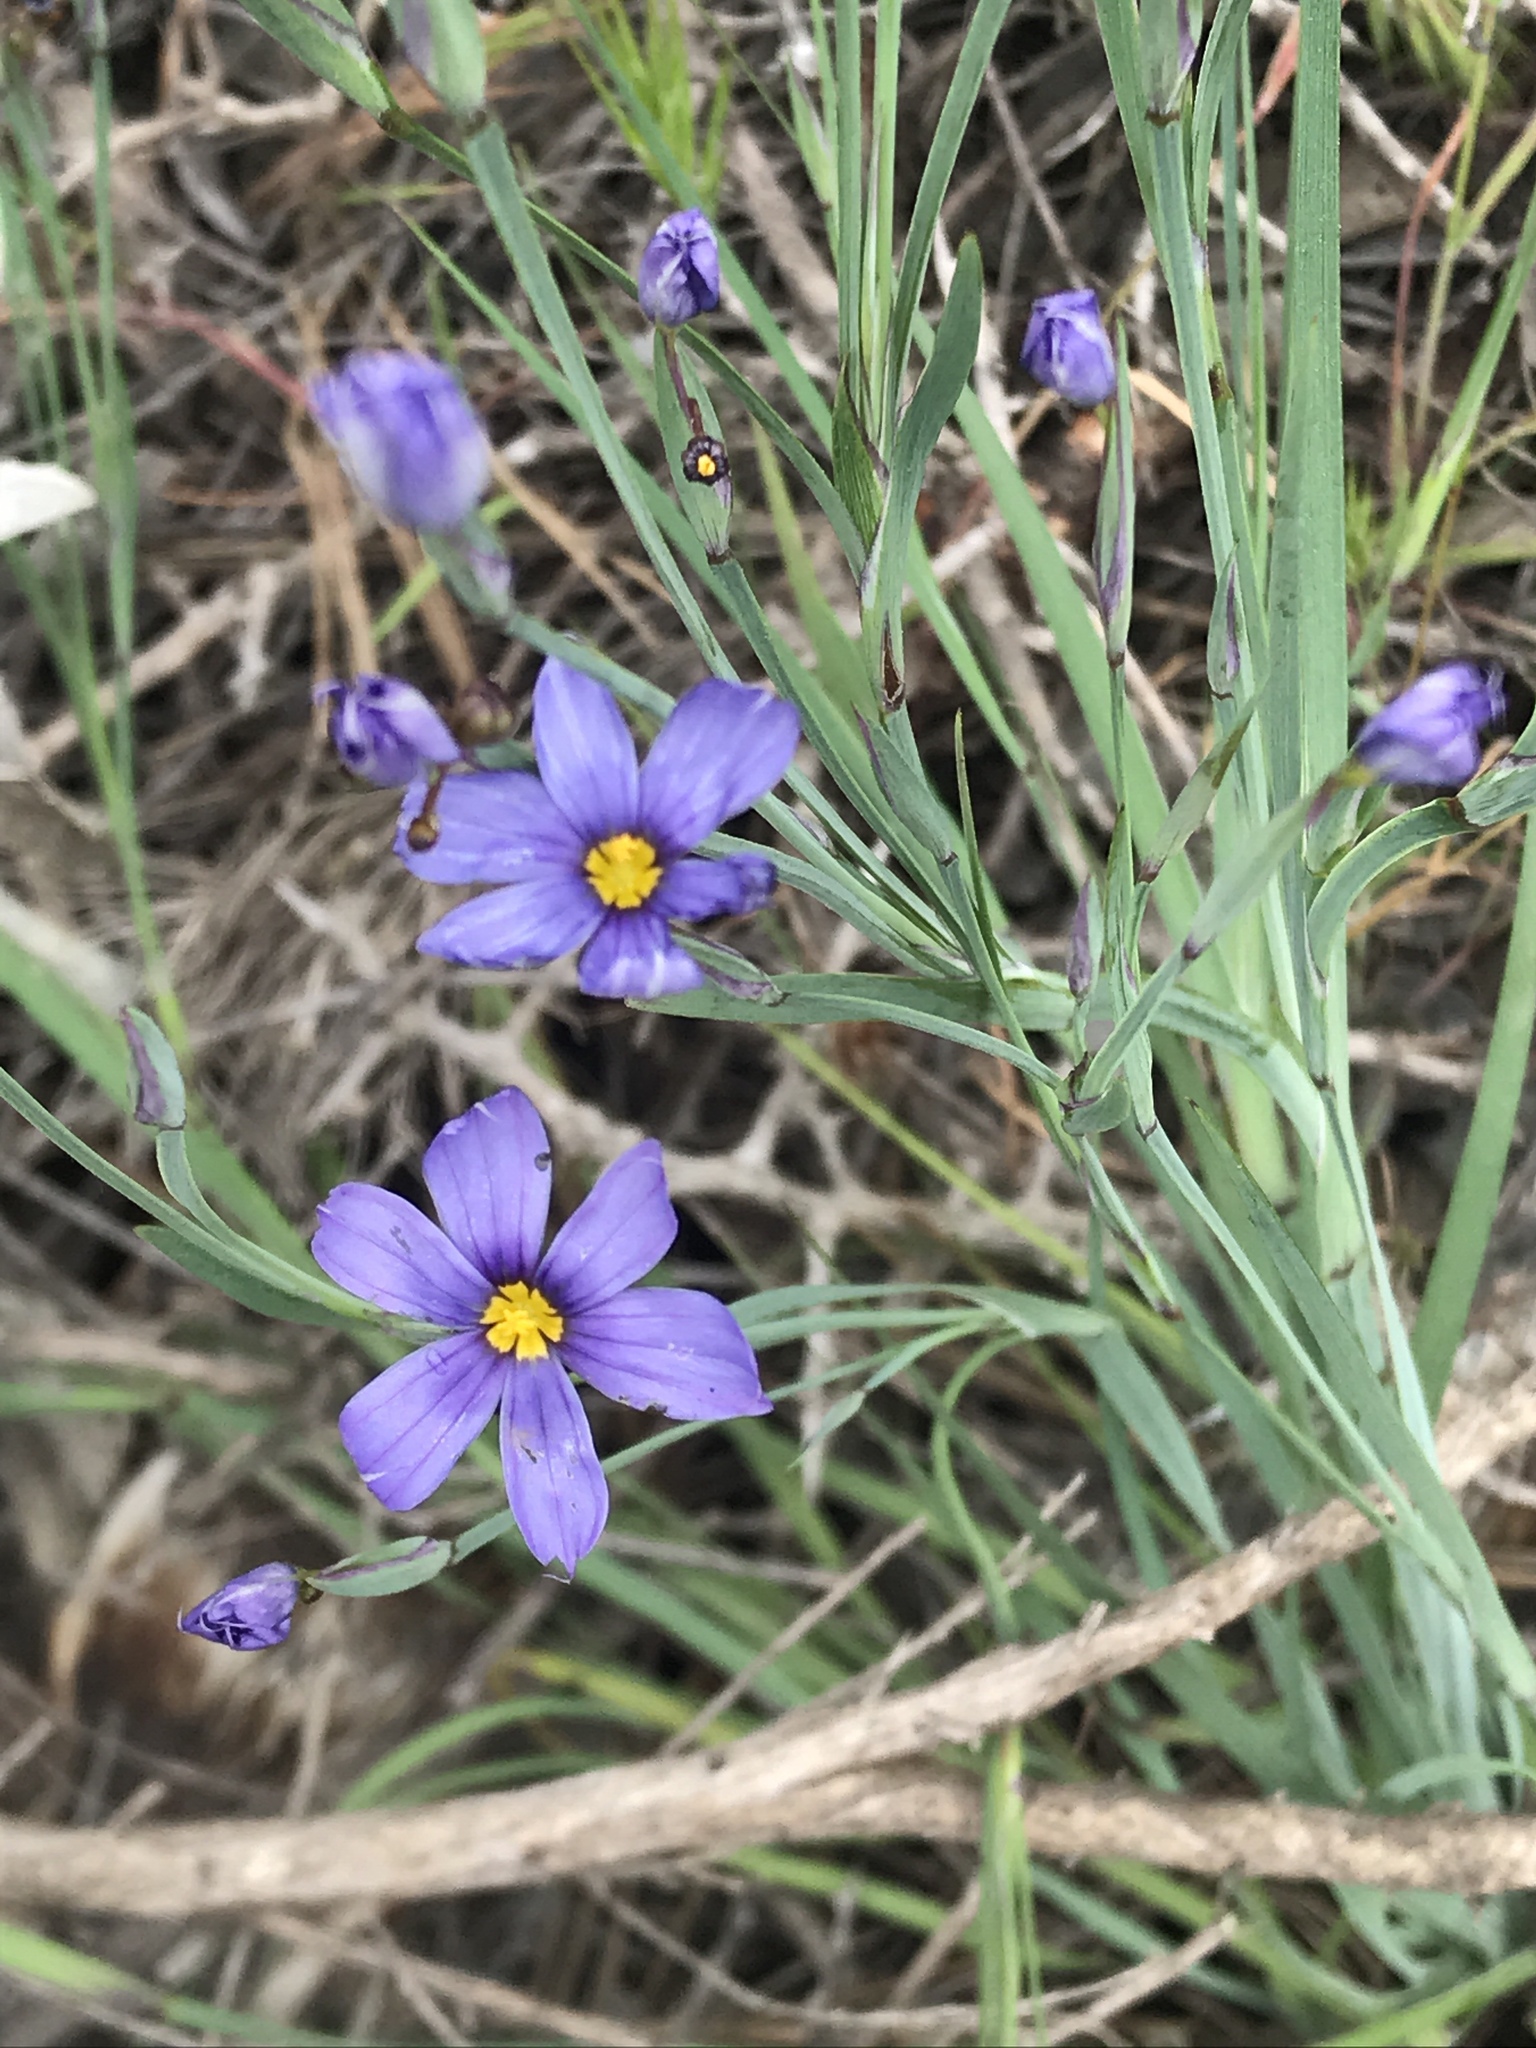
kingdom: Plantae
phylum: Tracheophyta
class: Liliopsida
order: Asparagales
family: Iridaceae
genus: Sisyrinchium
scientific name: Sisyrinchium bellum
